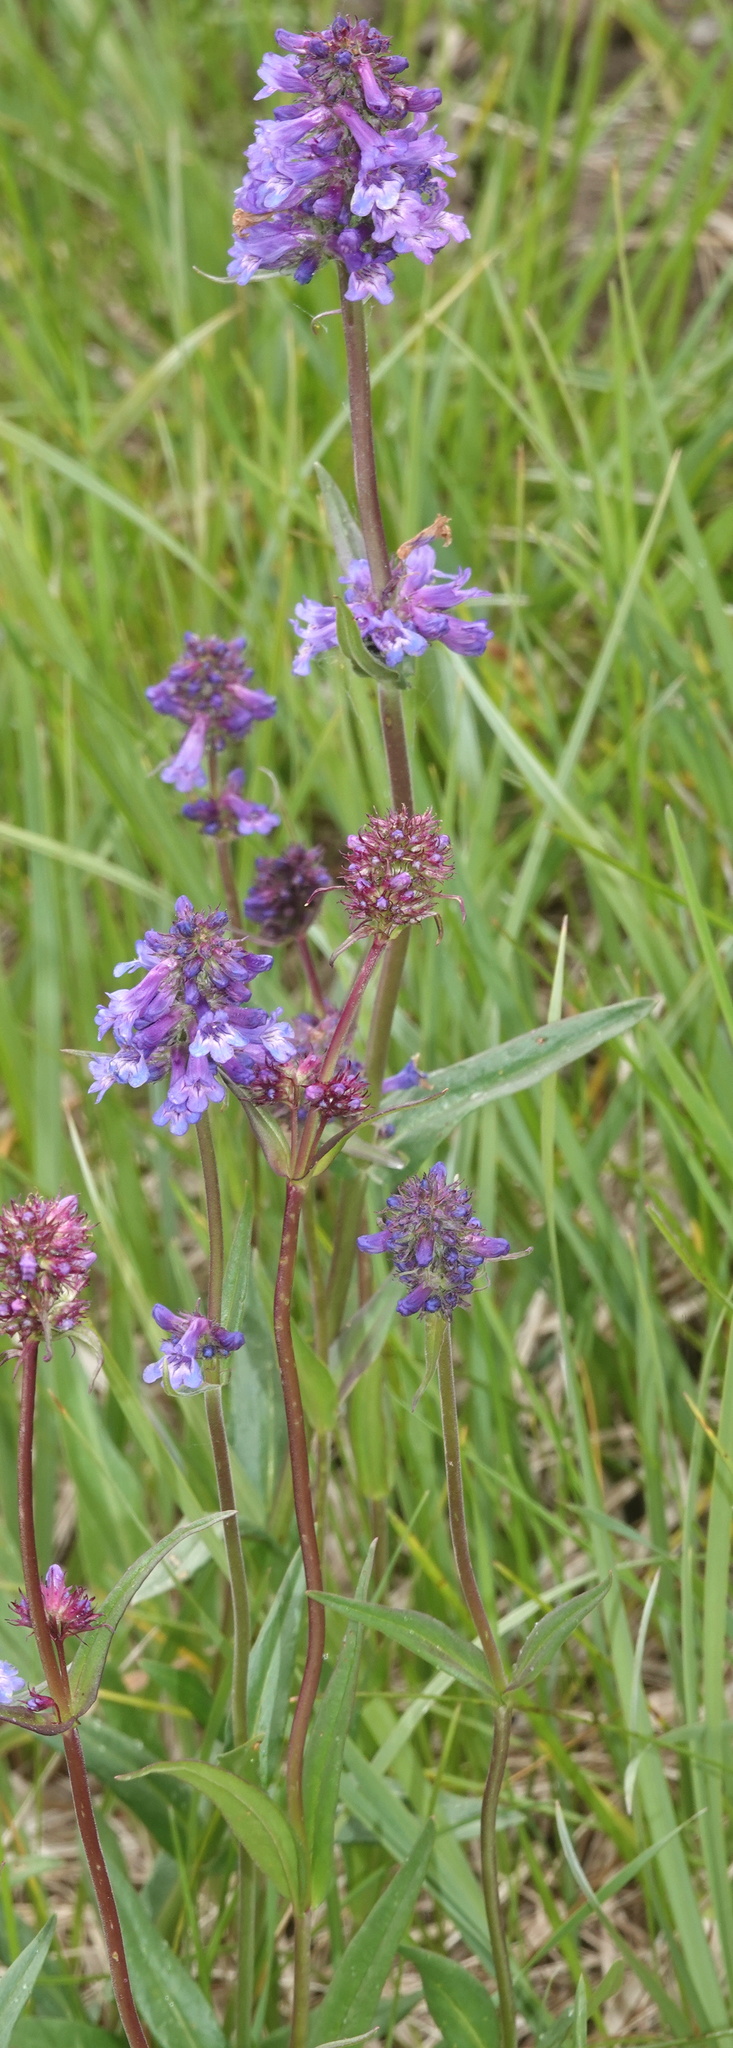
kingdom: Plantae
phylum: Tracheophyta
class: Magnoliopsida
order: Lamiales
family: Plantaginaceae
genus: Penstemon
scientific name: Penstemon rydbergii
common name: Rydberg's beardtongue
